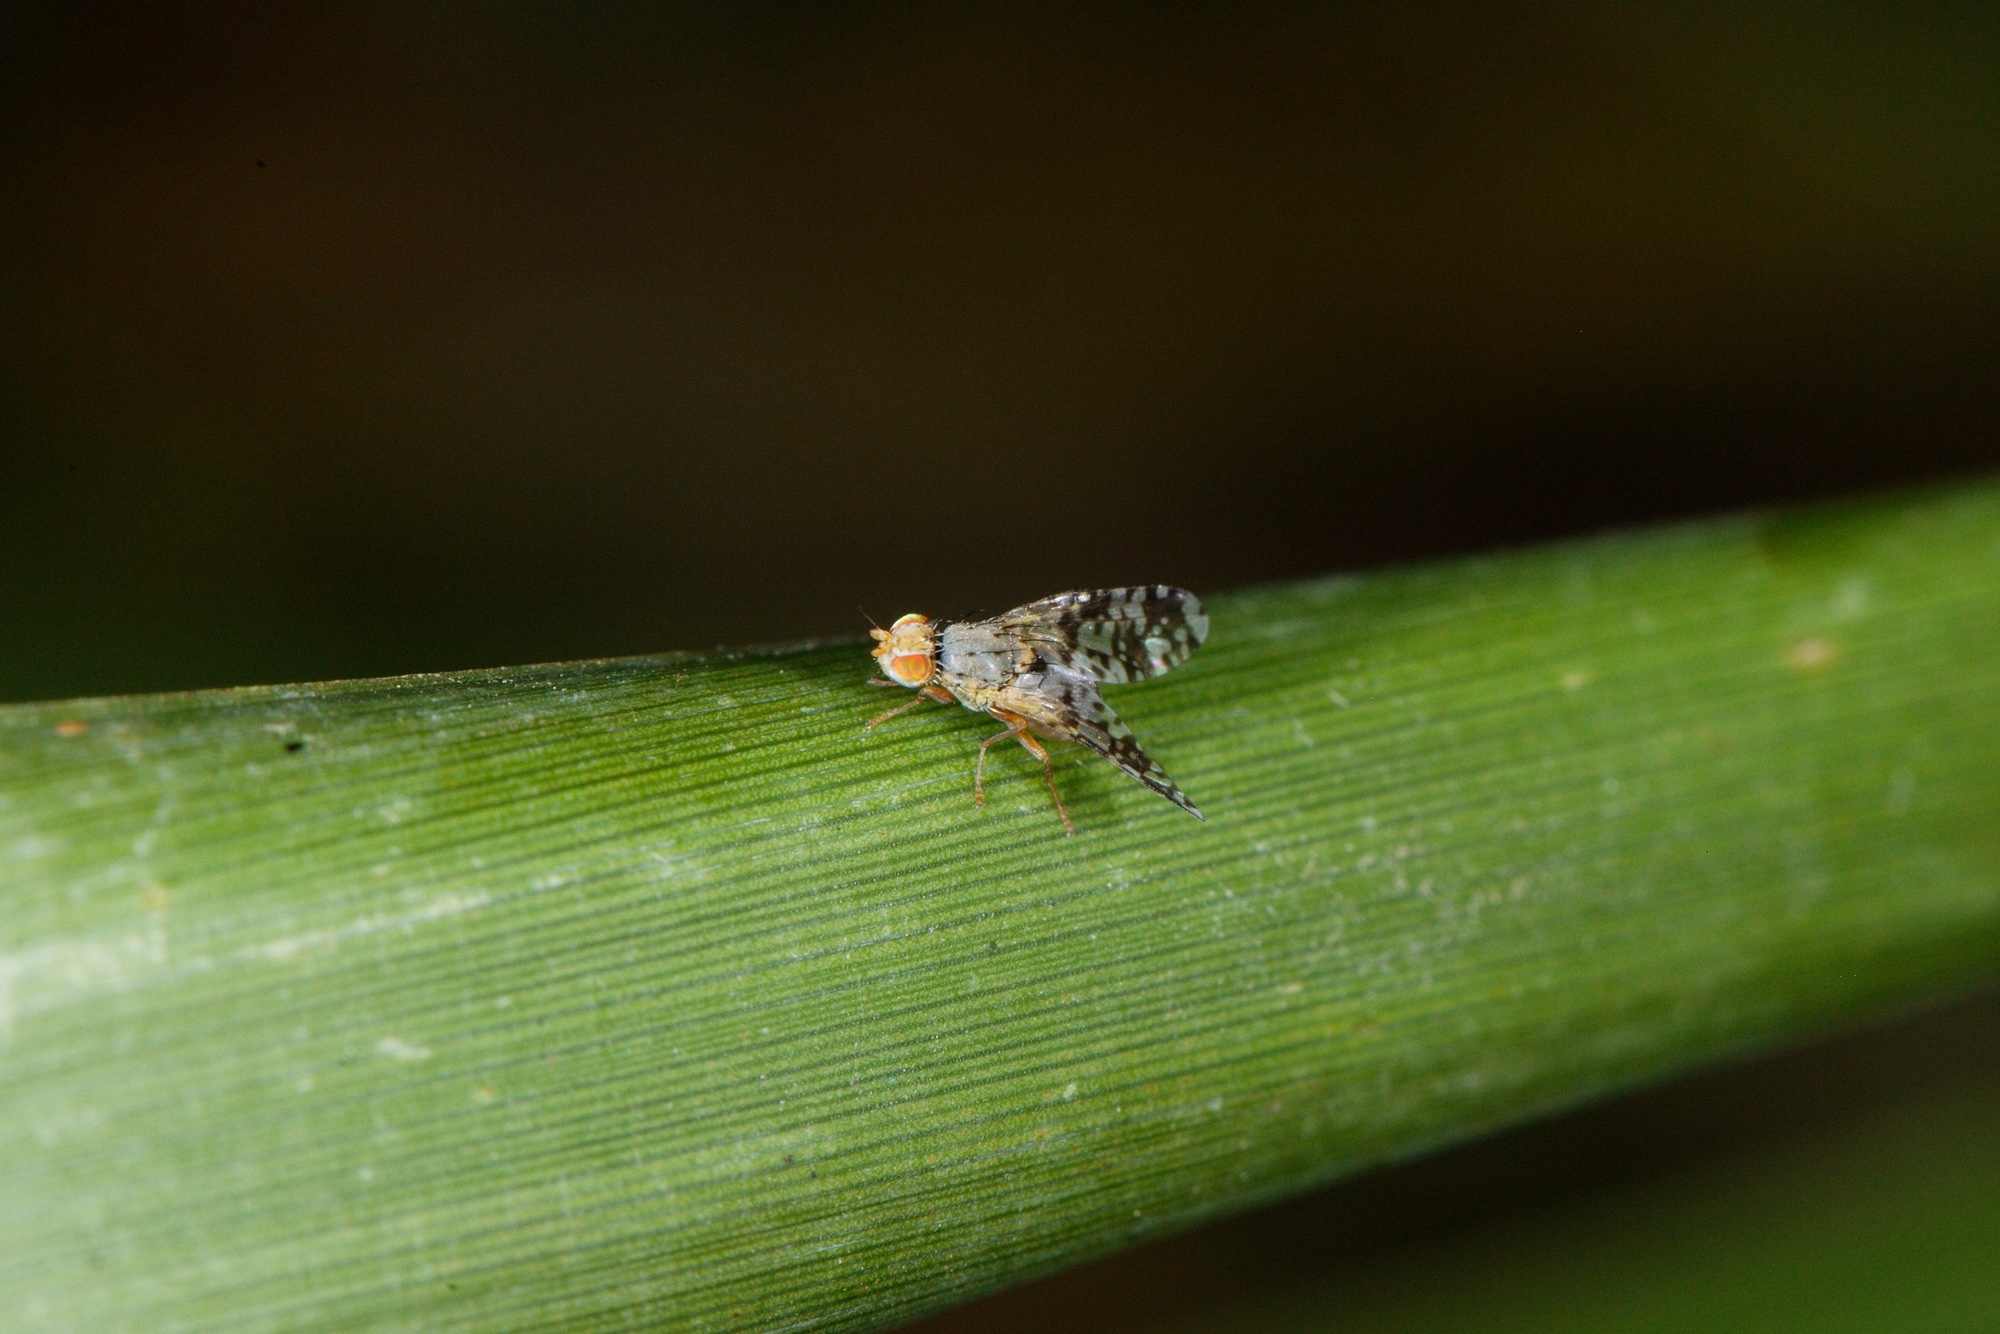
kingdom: Animalia
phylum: Arthropoda
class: Insecta
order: Diptera
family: Tephritidae
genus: Austrotephritis
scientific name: Austrotephritis
